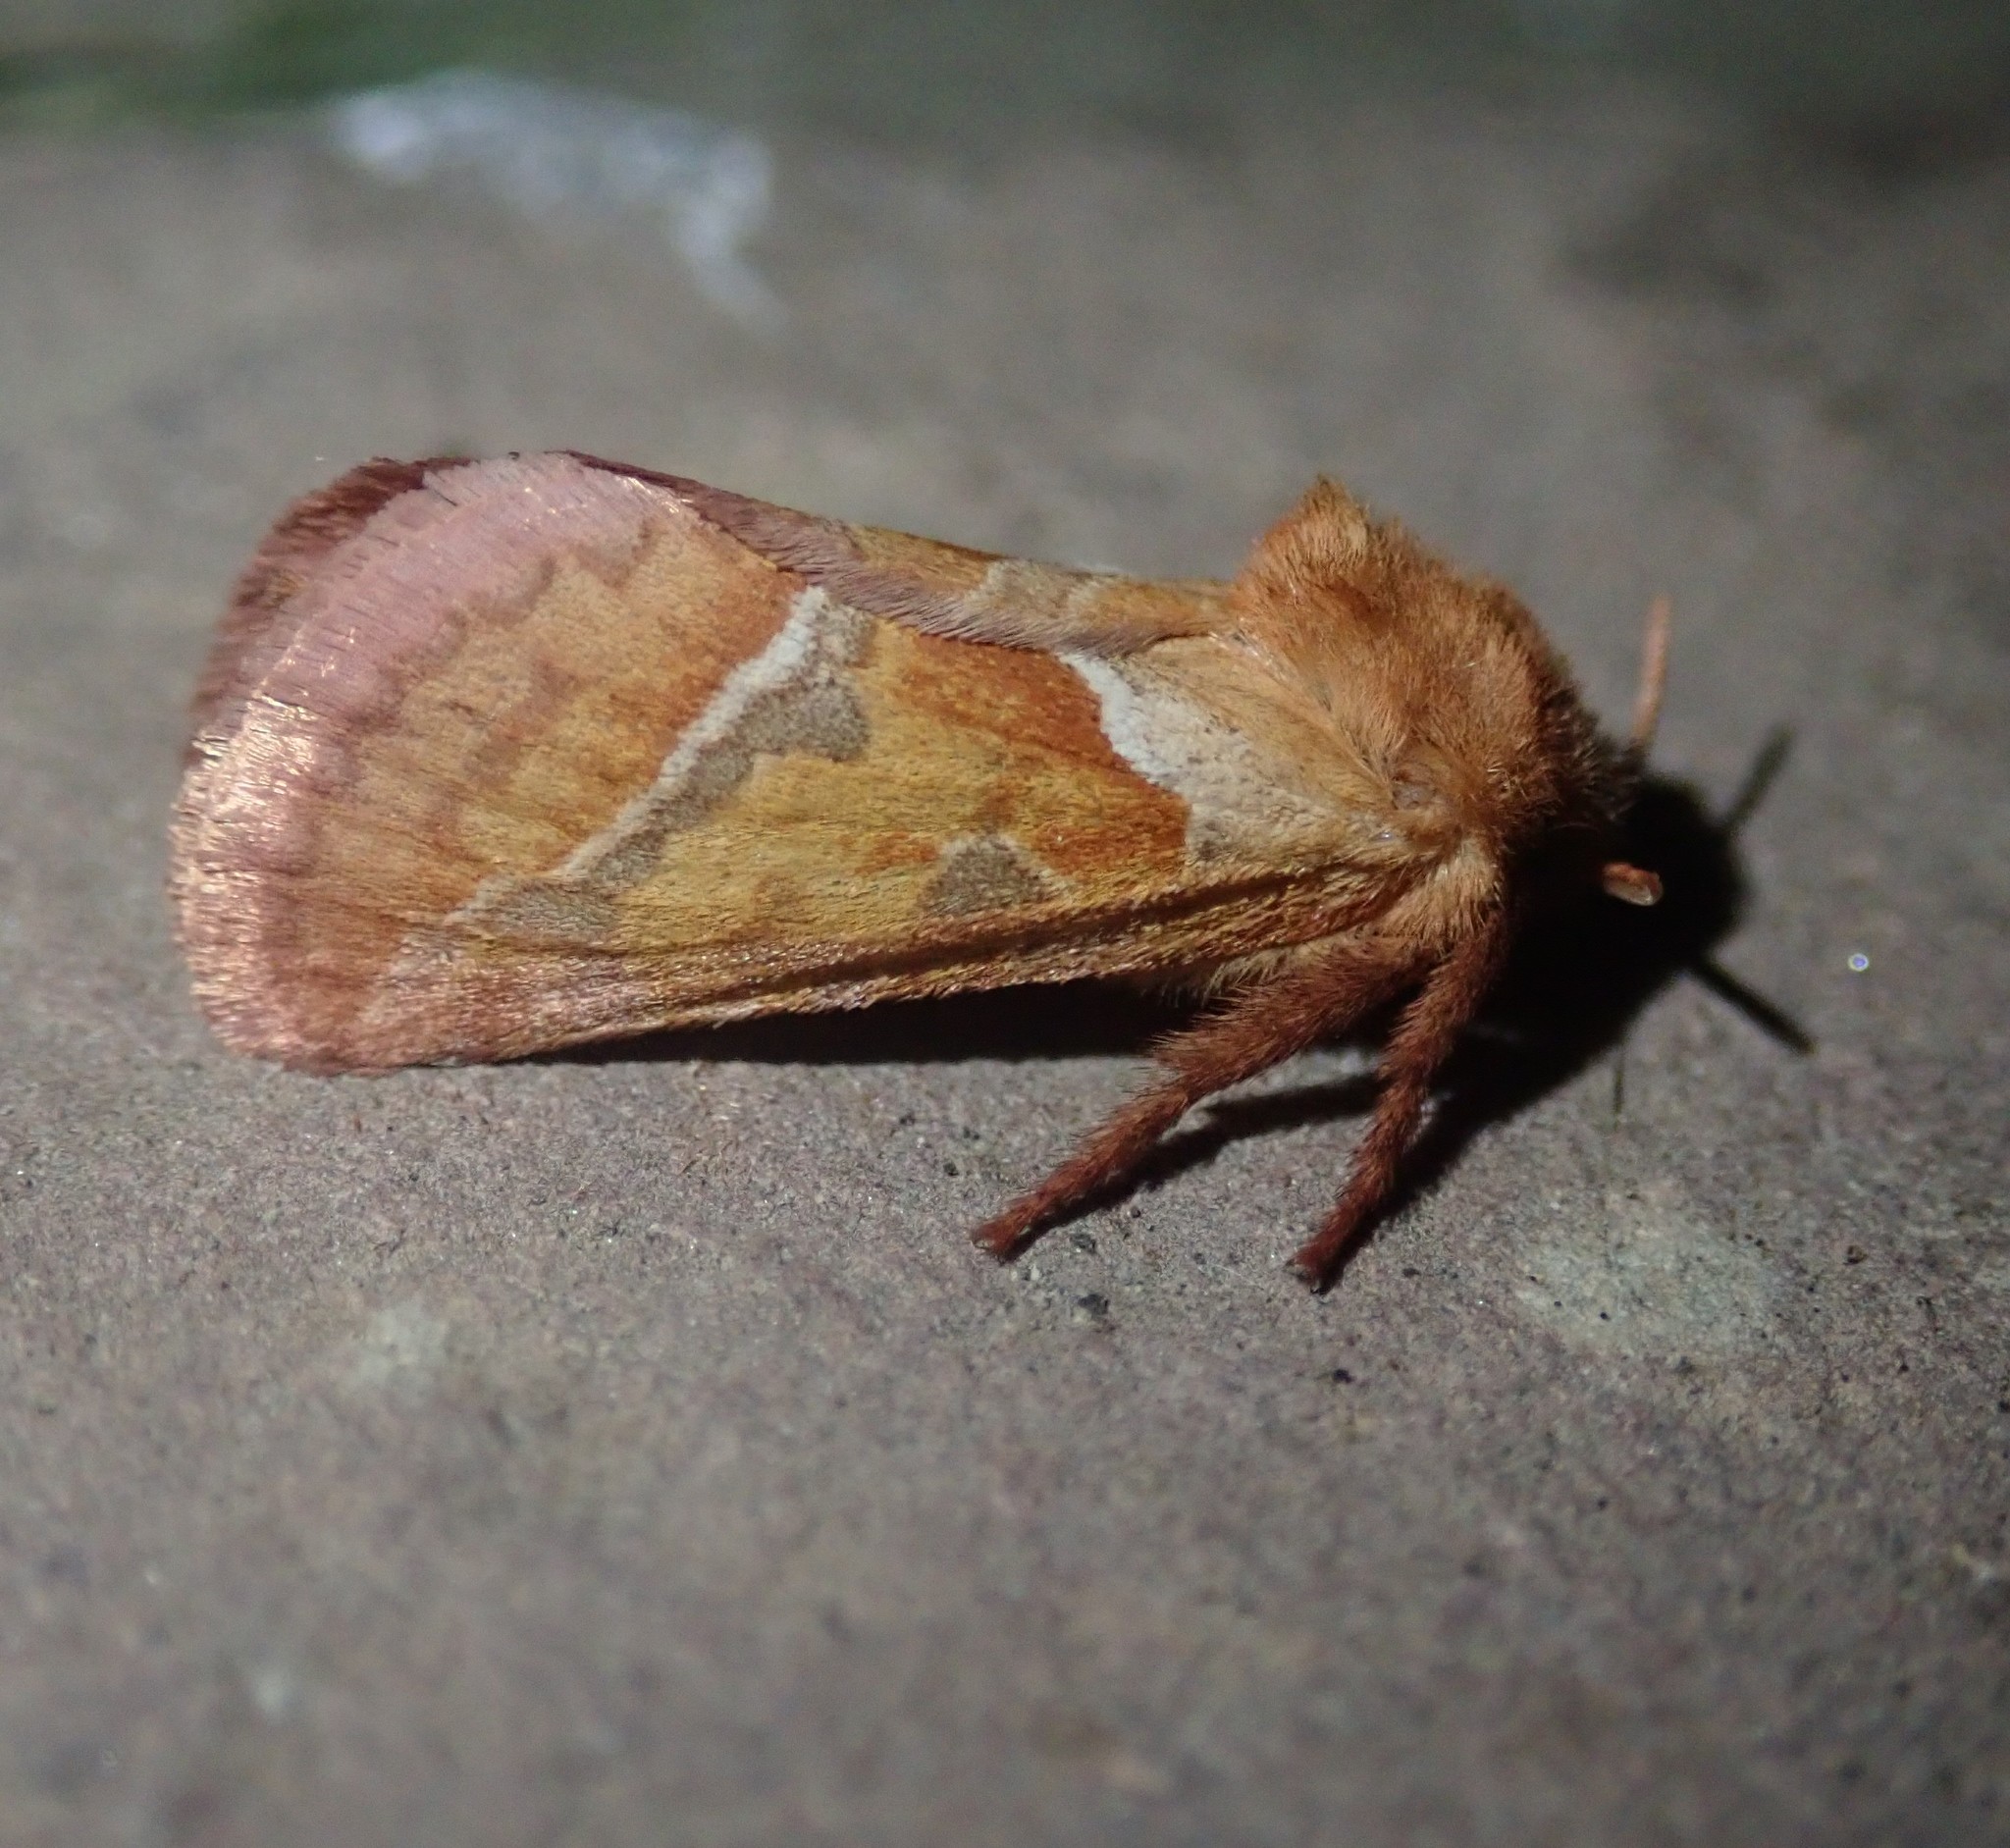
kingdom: Animalia
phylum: Arthropoda
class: Insecta
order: Lepidoptera
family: Hepialidae
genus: Triodia
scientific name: Triodia sylvina
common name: Orange swift
